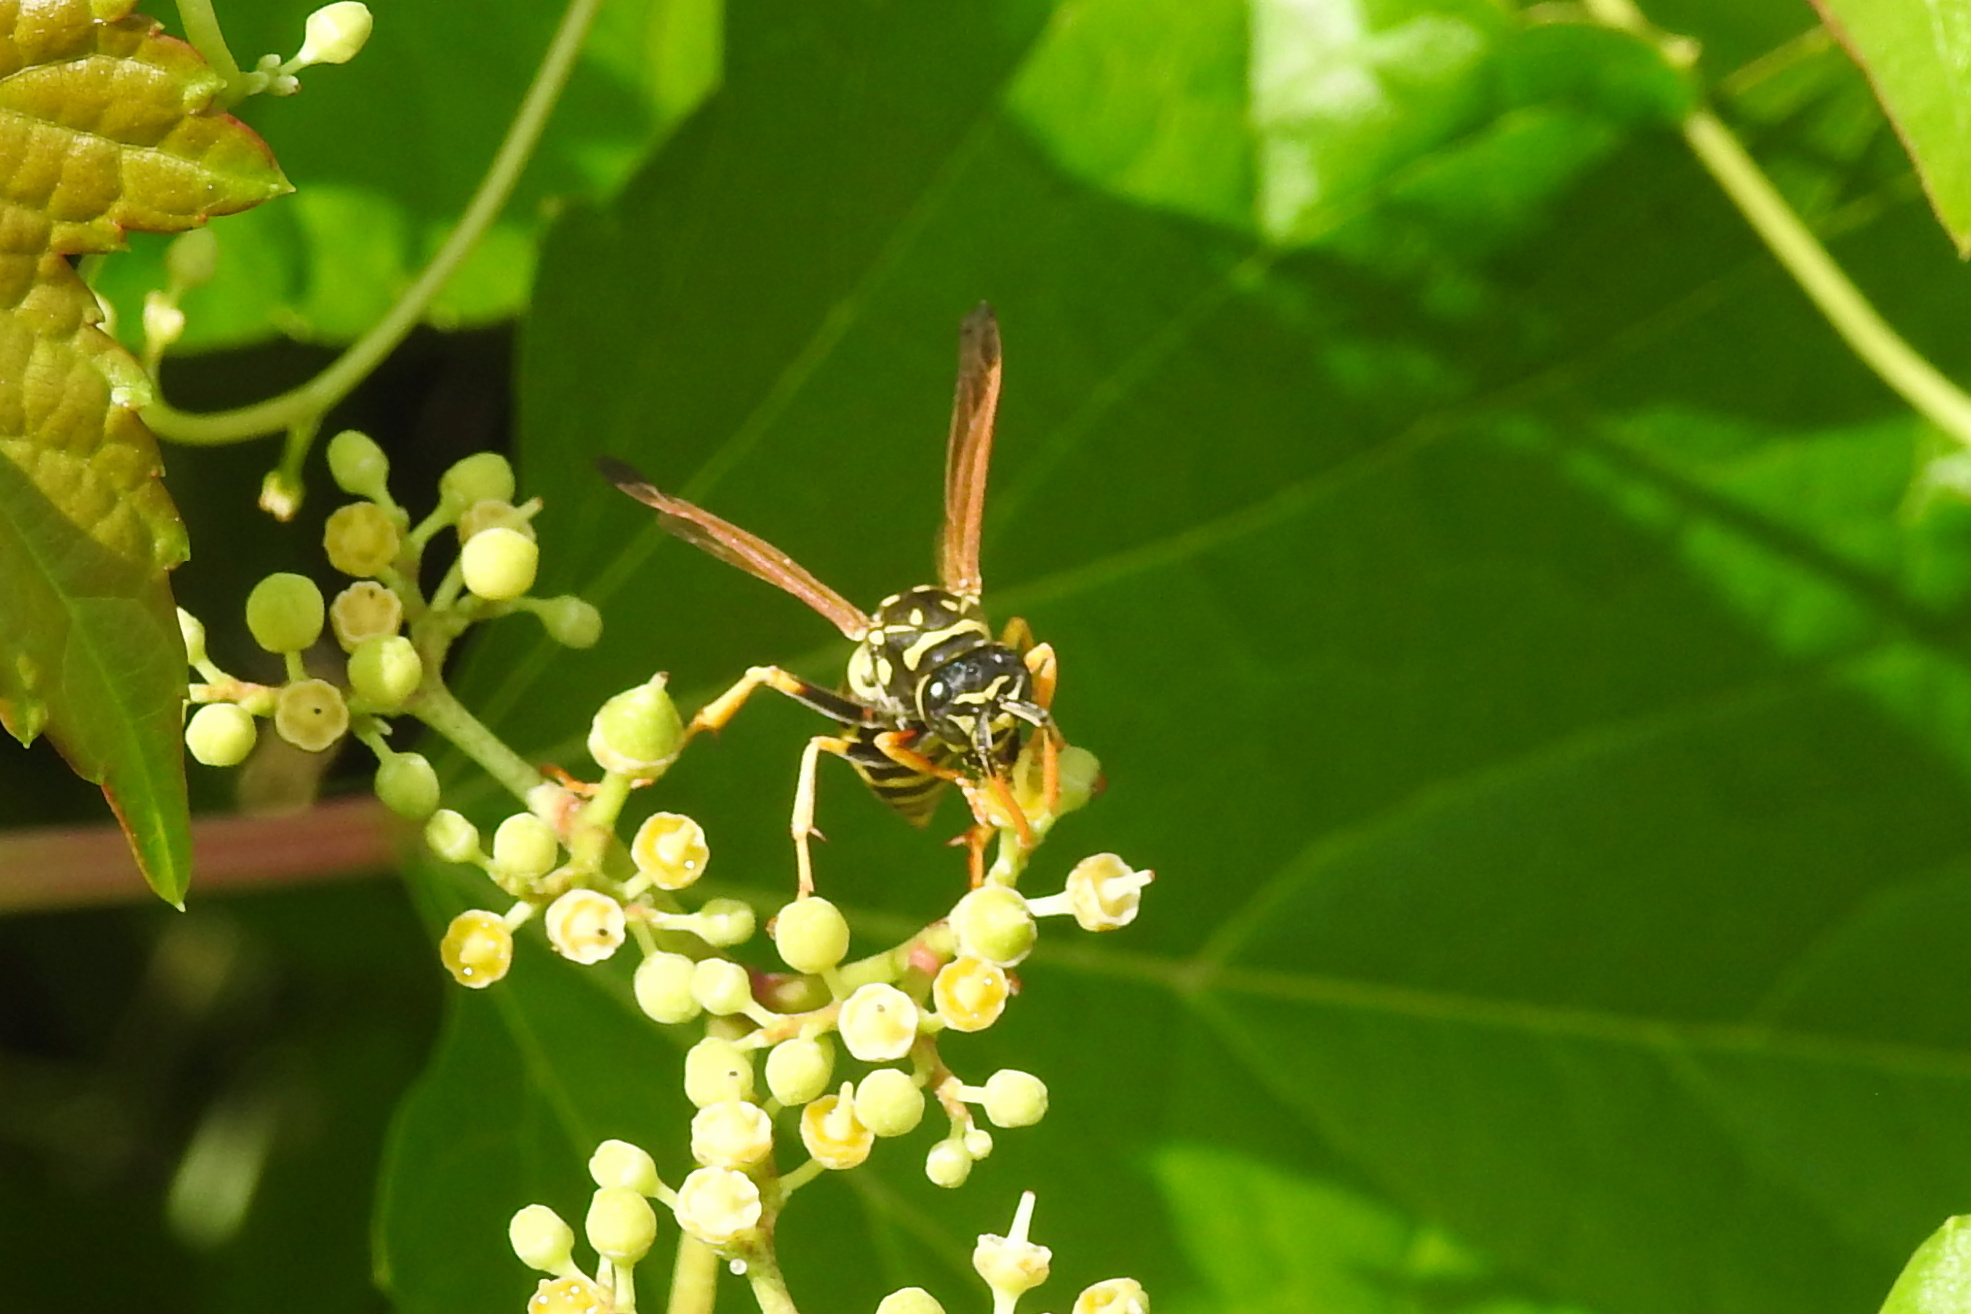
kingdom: Animalia
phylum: Arthropoda
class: Insecta
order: Hymenoptera
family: Eumenidae
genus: Polistes
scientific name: Polistes dominula
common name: Paper wasp
